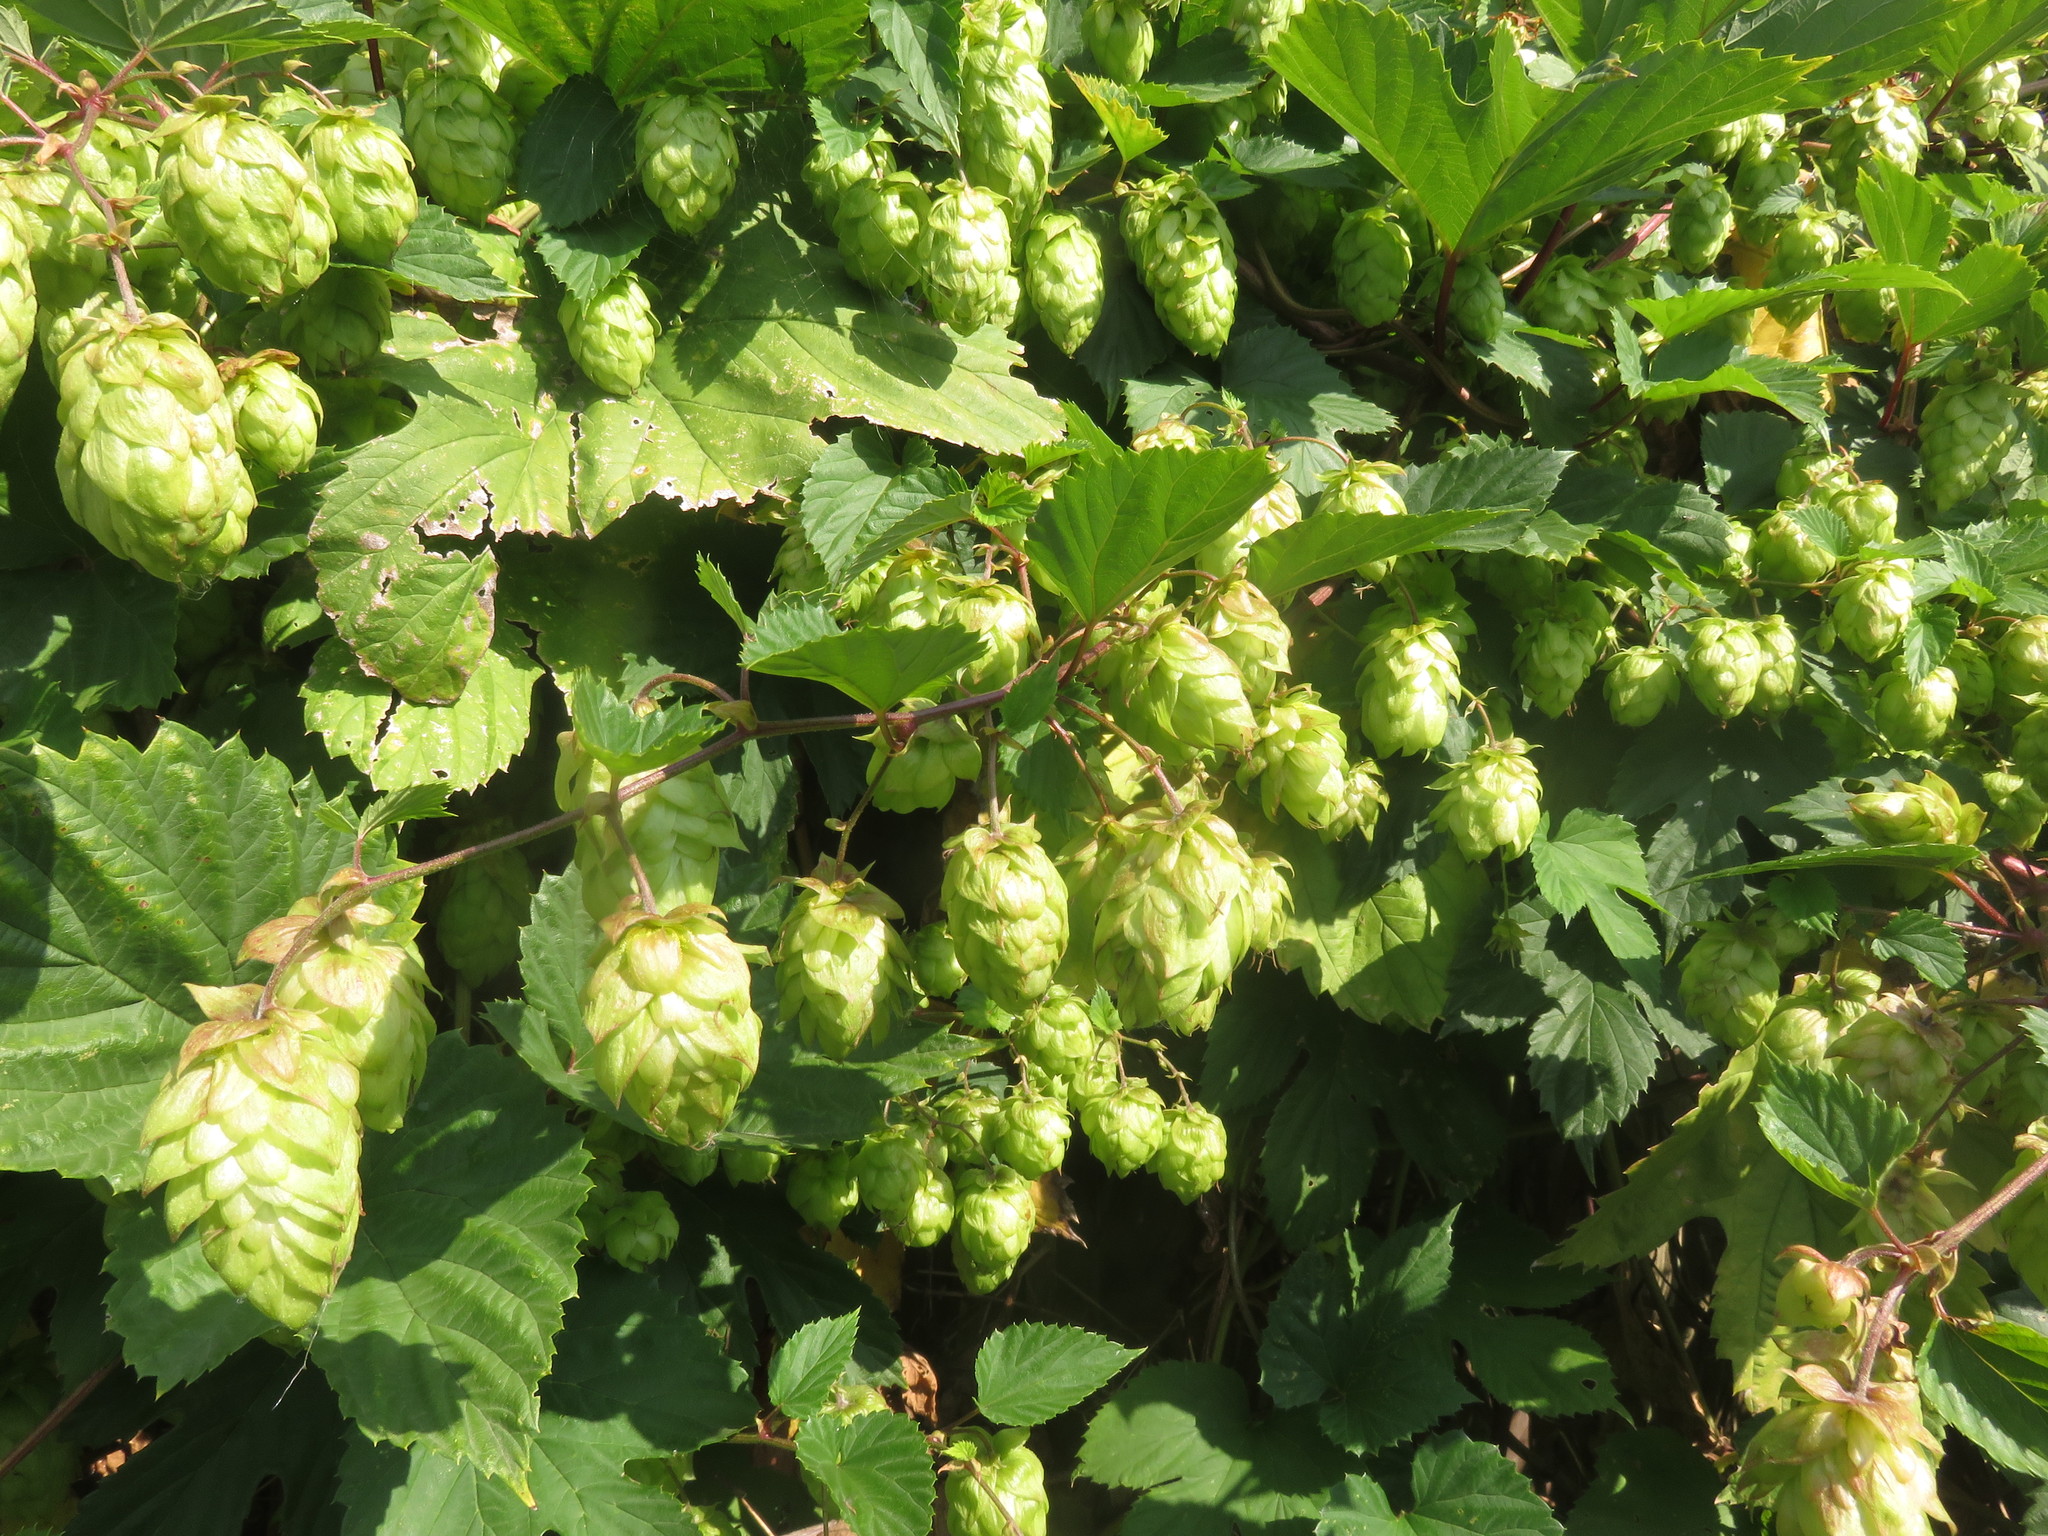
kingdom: Plantae
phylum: Tracheophyta
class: Magnoliopsida
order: Rosales
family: Cannabaceae
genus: Humulus
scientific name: Humulus lupulus
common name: Hop
